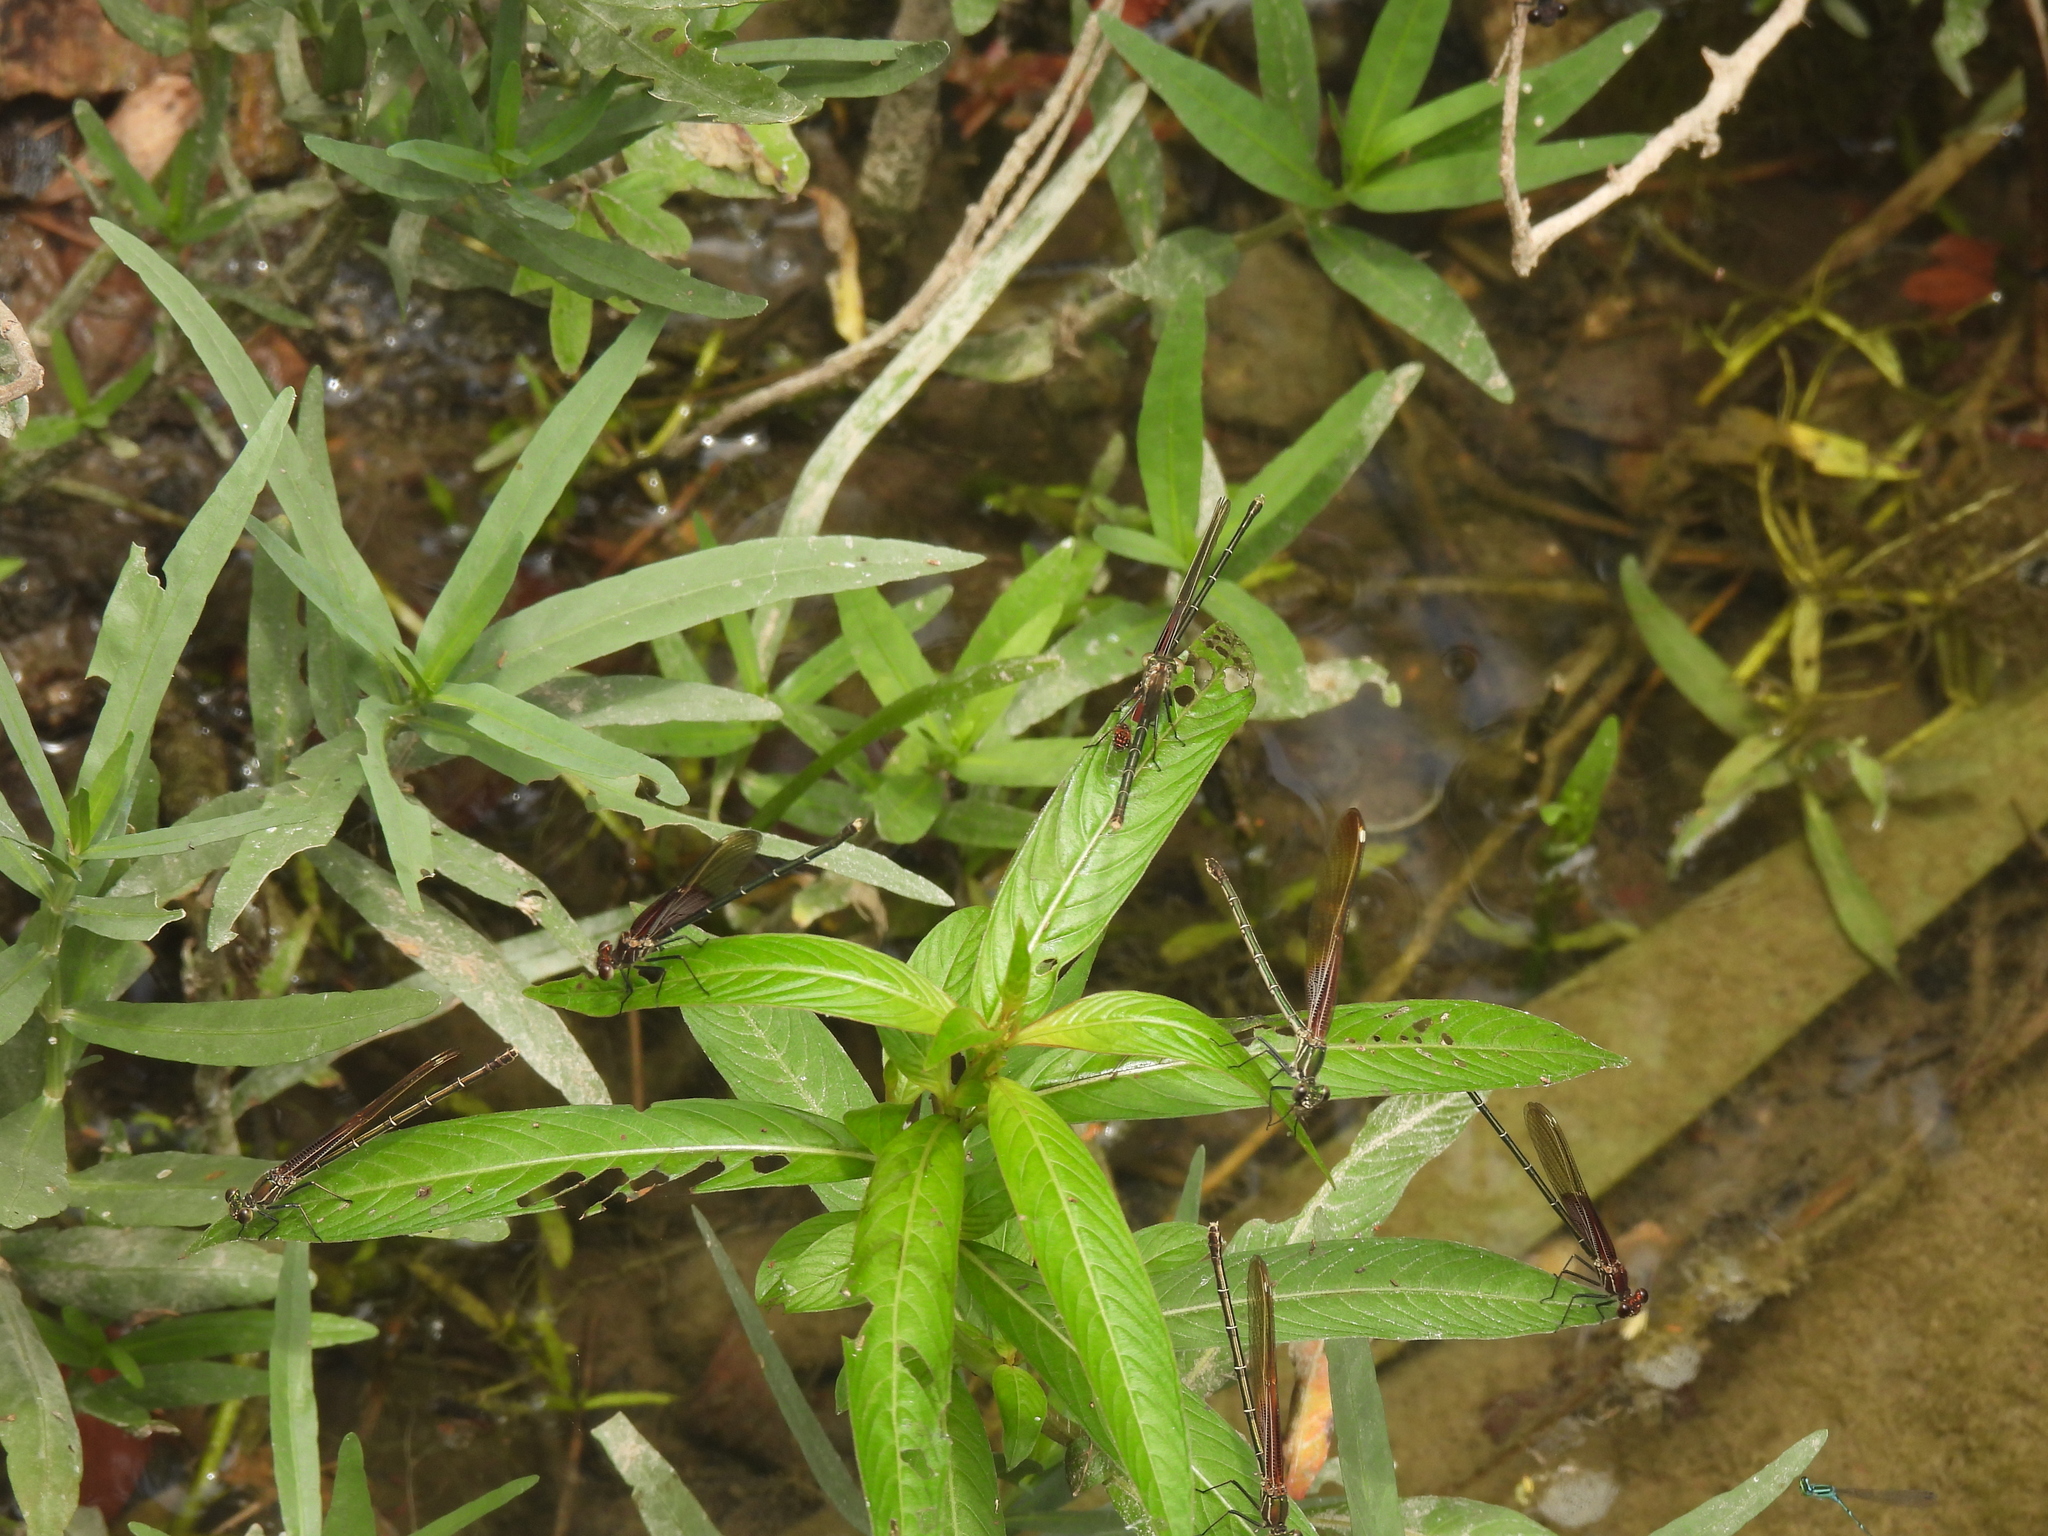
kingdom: Animalia
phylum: Arthropoda
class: Insecta
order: Odonata
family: Calopterygidae
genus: Hetaerina
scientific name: Hetaerina americana
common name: American rubyspot
